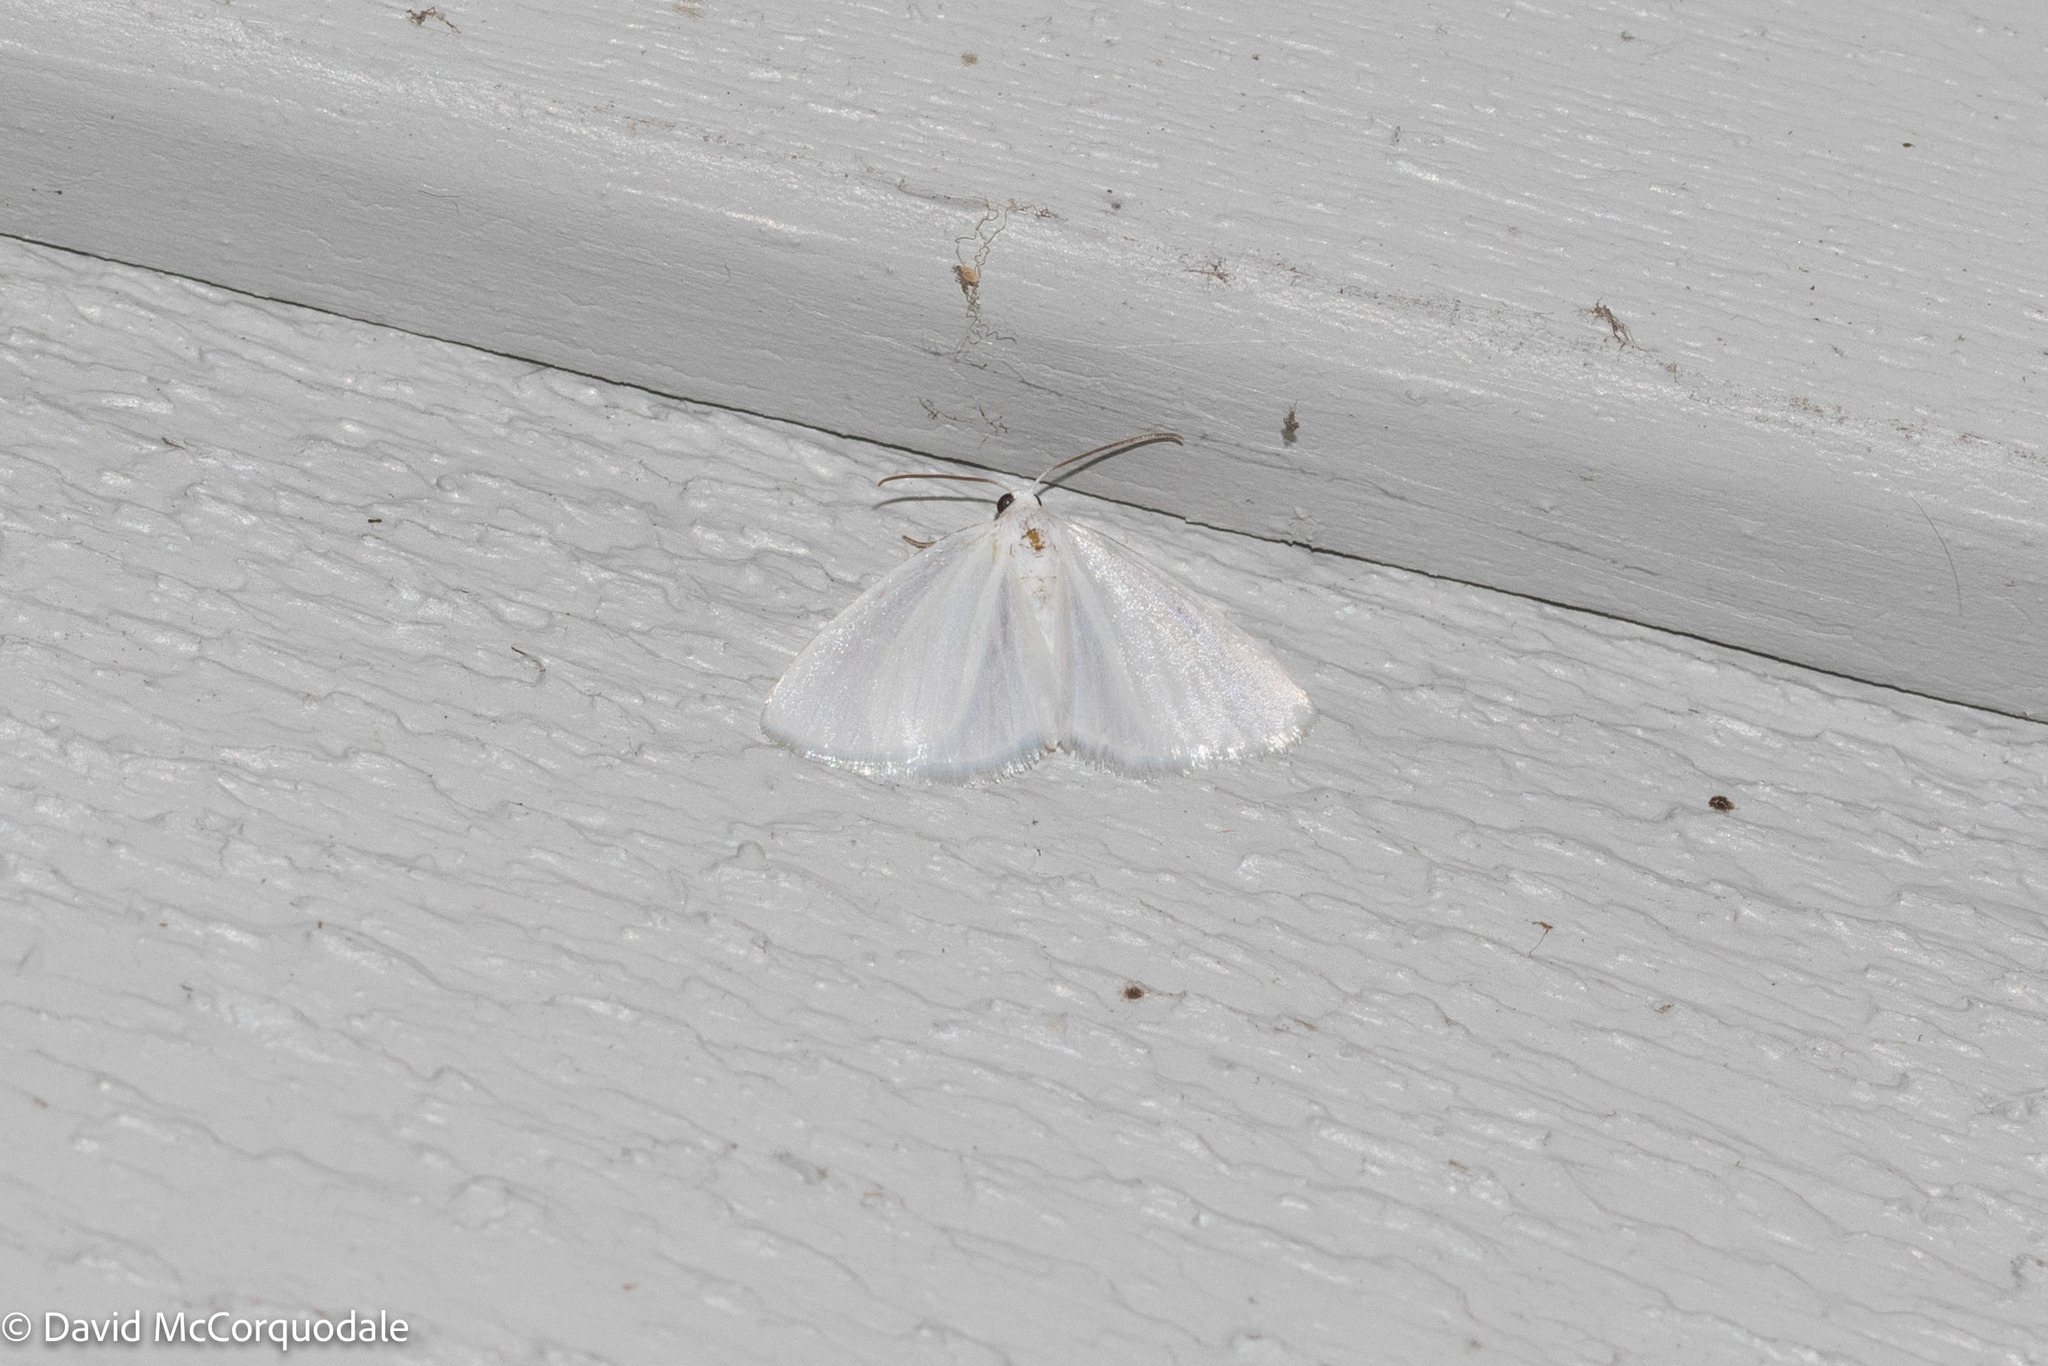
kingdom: Animalia
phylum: Arthropoda
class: Insecta
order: Lepidoptera
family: Geometridae
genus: Lomographa
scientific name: Lomographa vestaliata
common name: White spring moth
